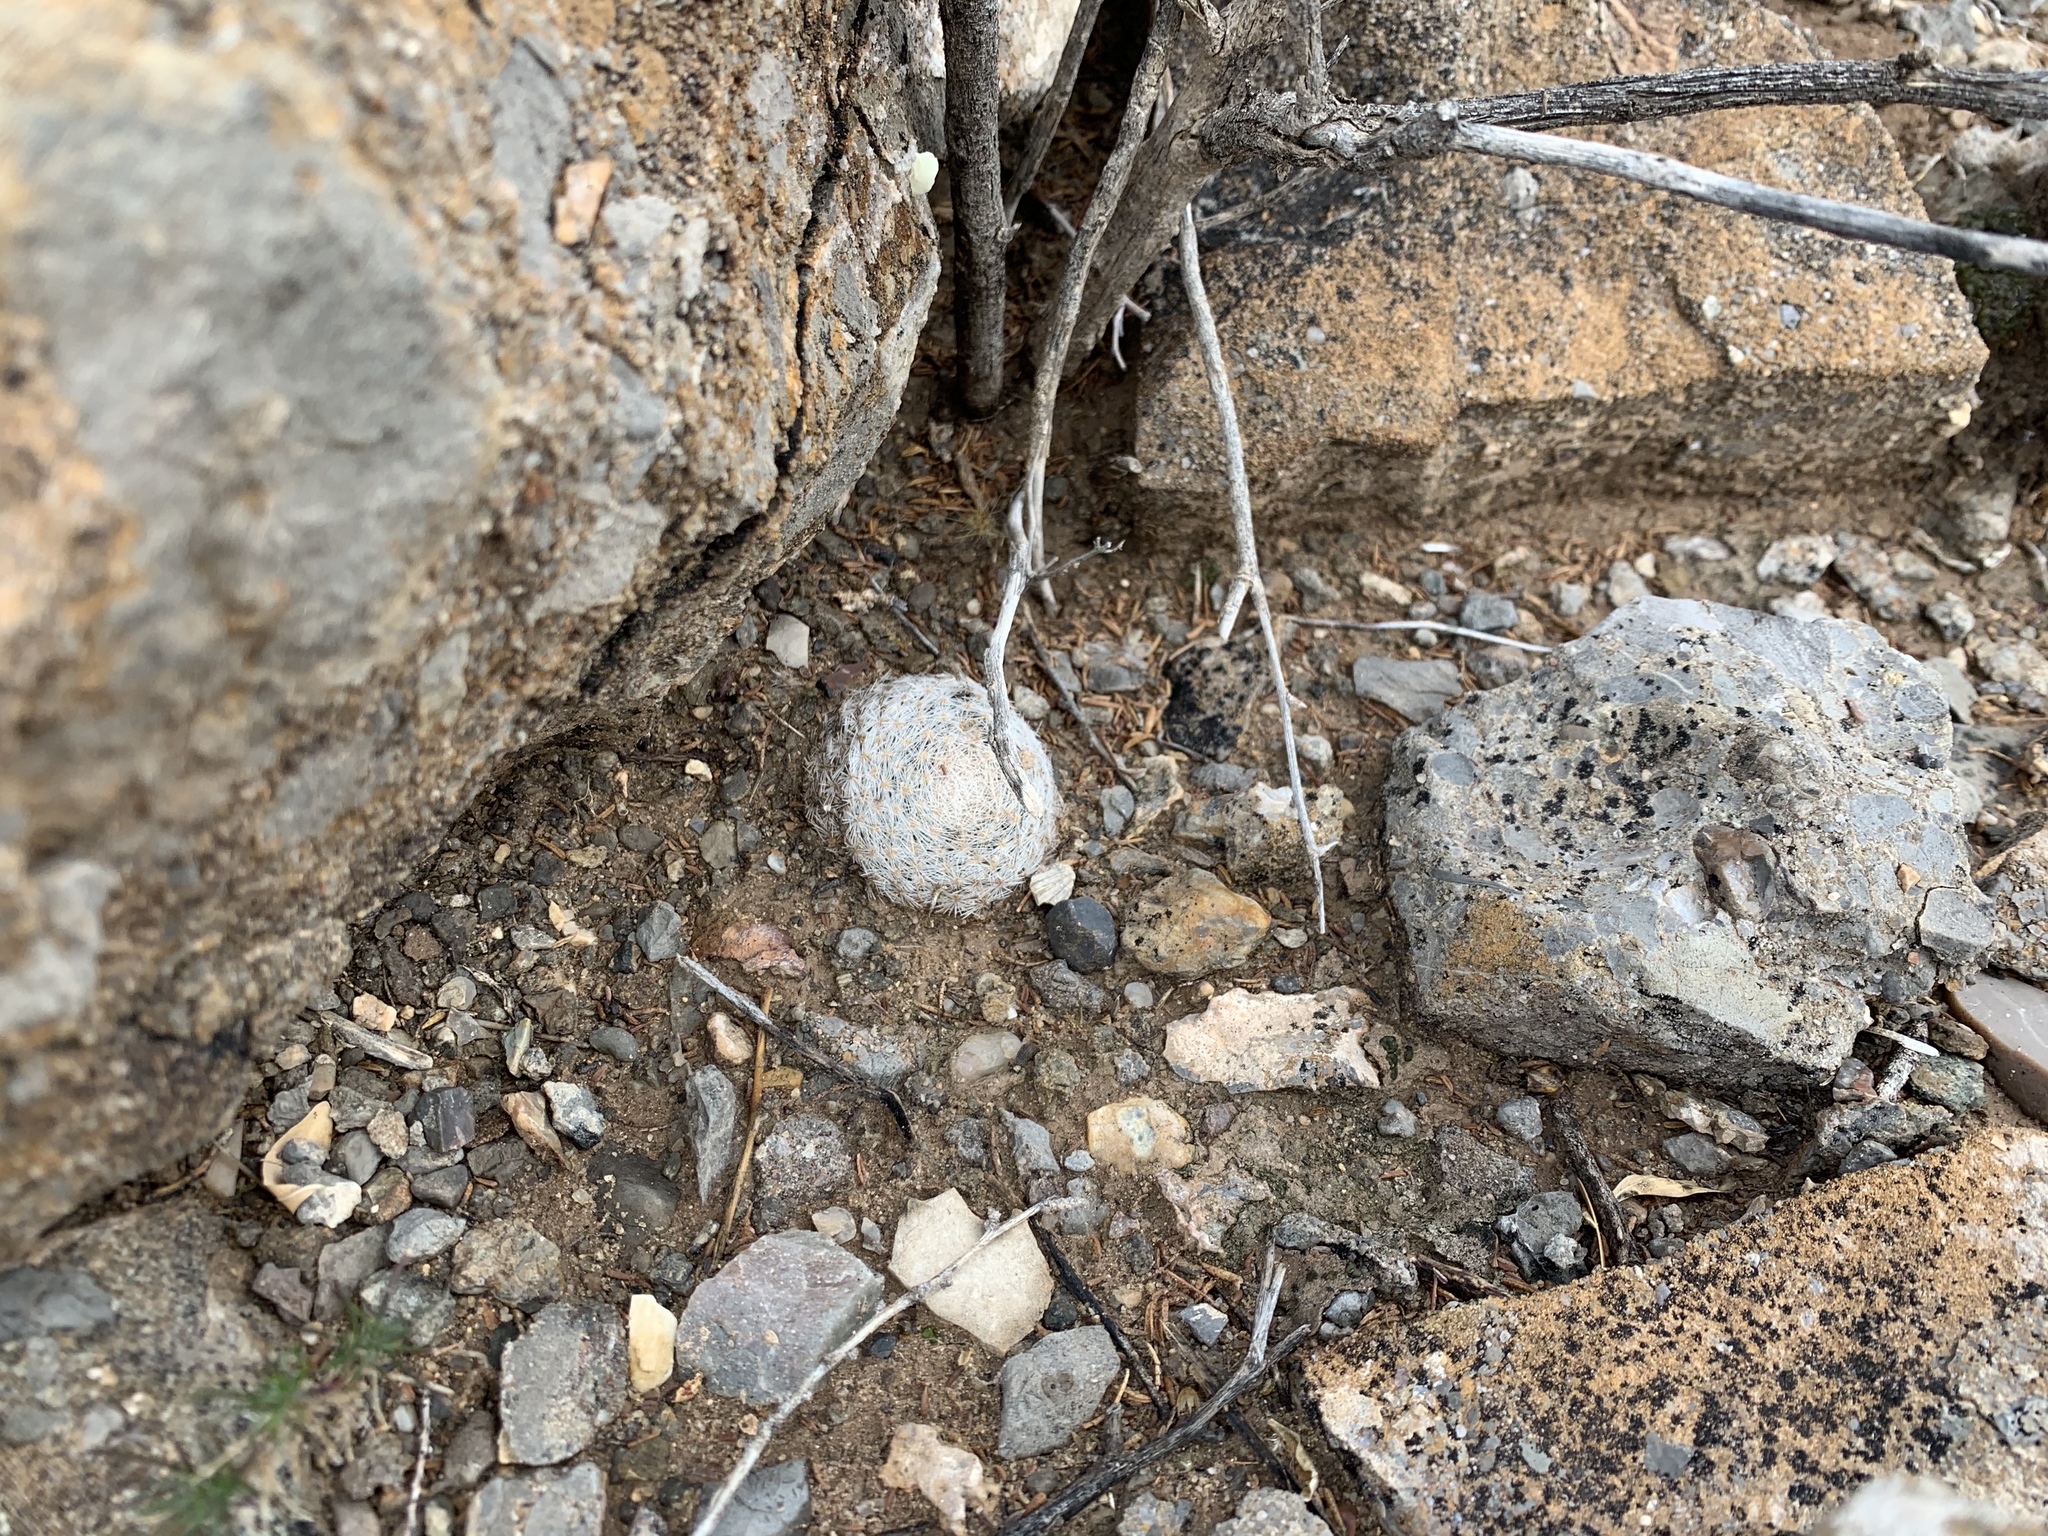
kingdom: Plantae
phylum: Tracheophyta
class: Magnoliopsida
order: Caryophyllales
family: Cactaceae
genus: Mammillaria
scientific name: Mammillaria lasiacantha
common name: Lace-spine nipple cactus
